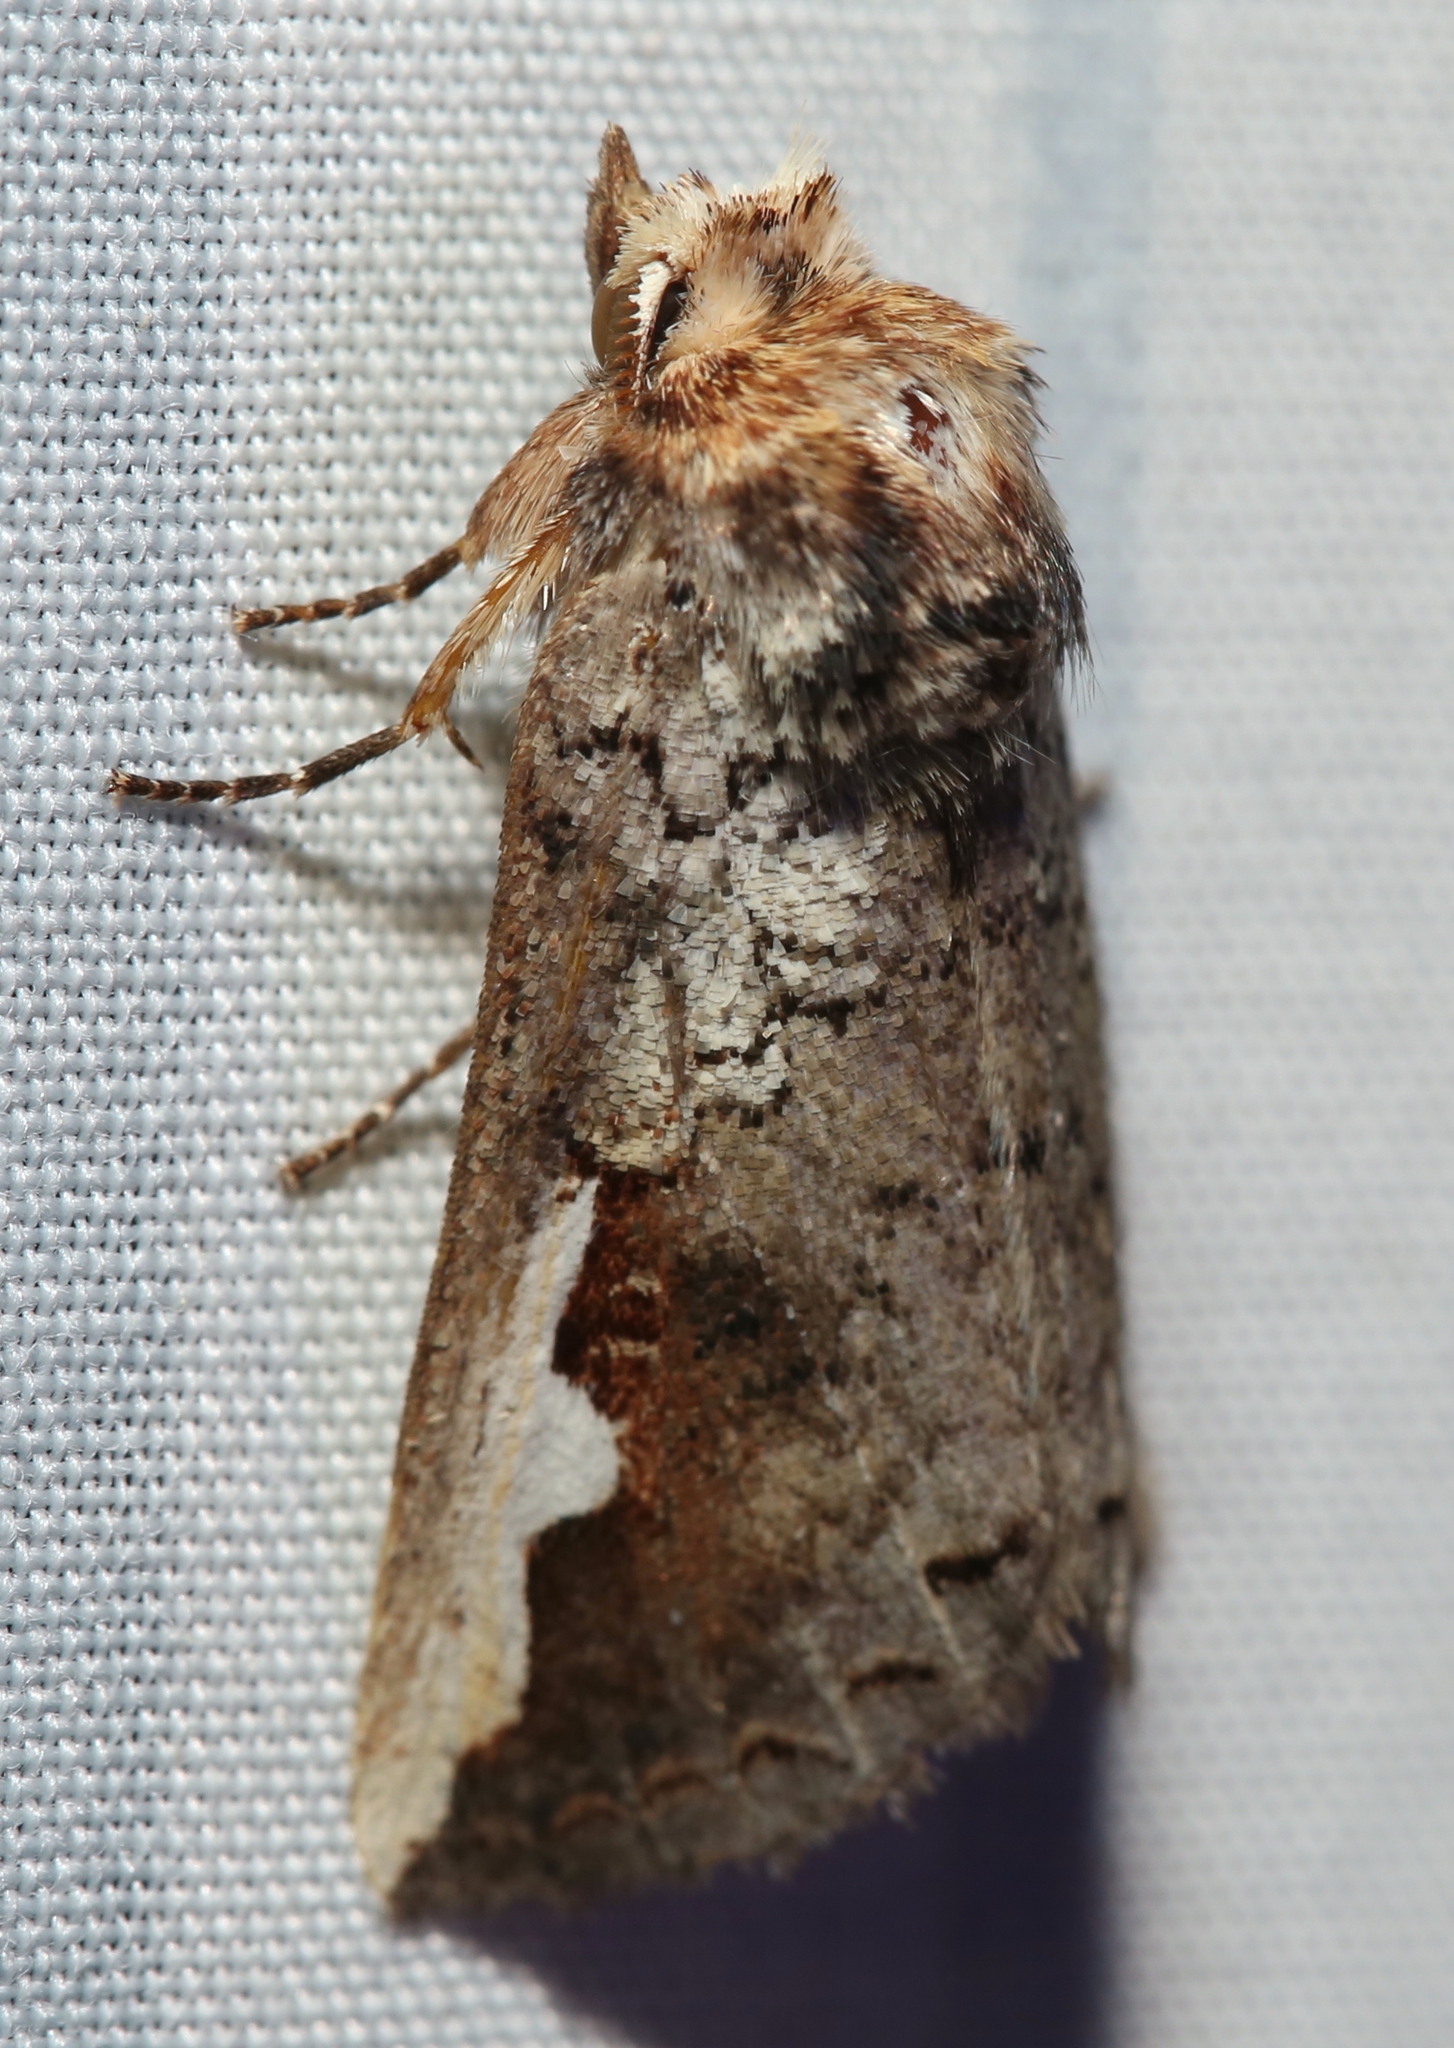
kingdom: Animalia
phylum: Arthropoda
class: Insecta
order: Lepidoptera
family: Notodontidae
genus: Symmerista
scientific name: Symmerista albifrons
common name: White-headed prominent
